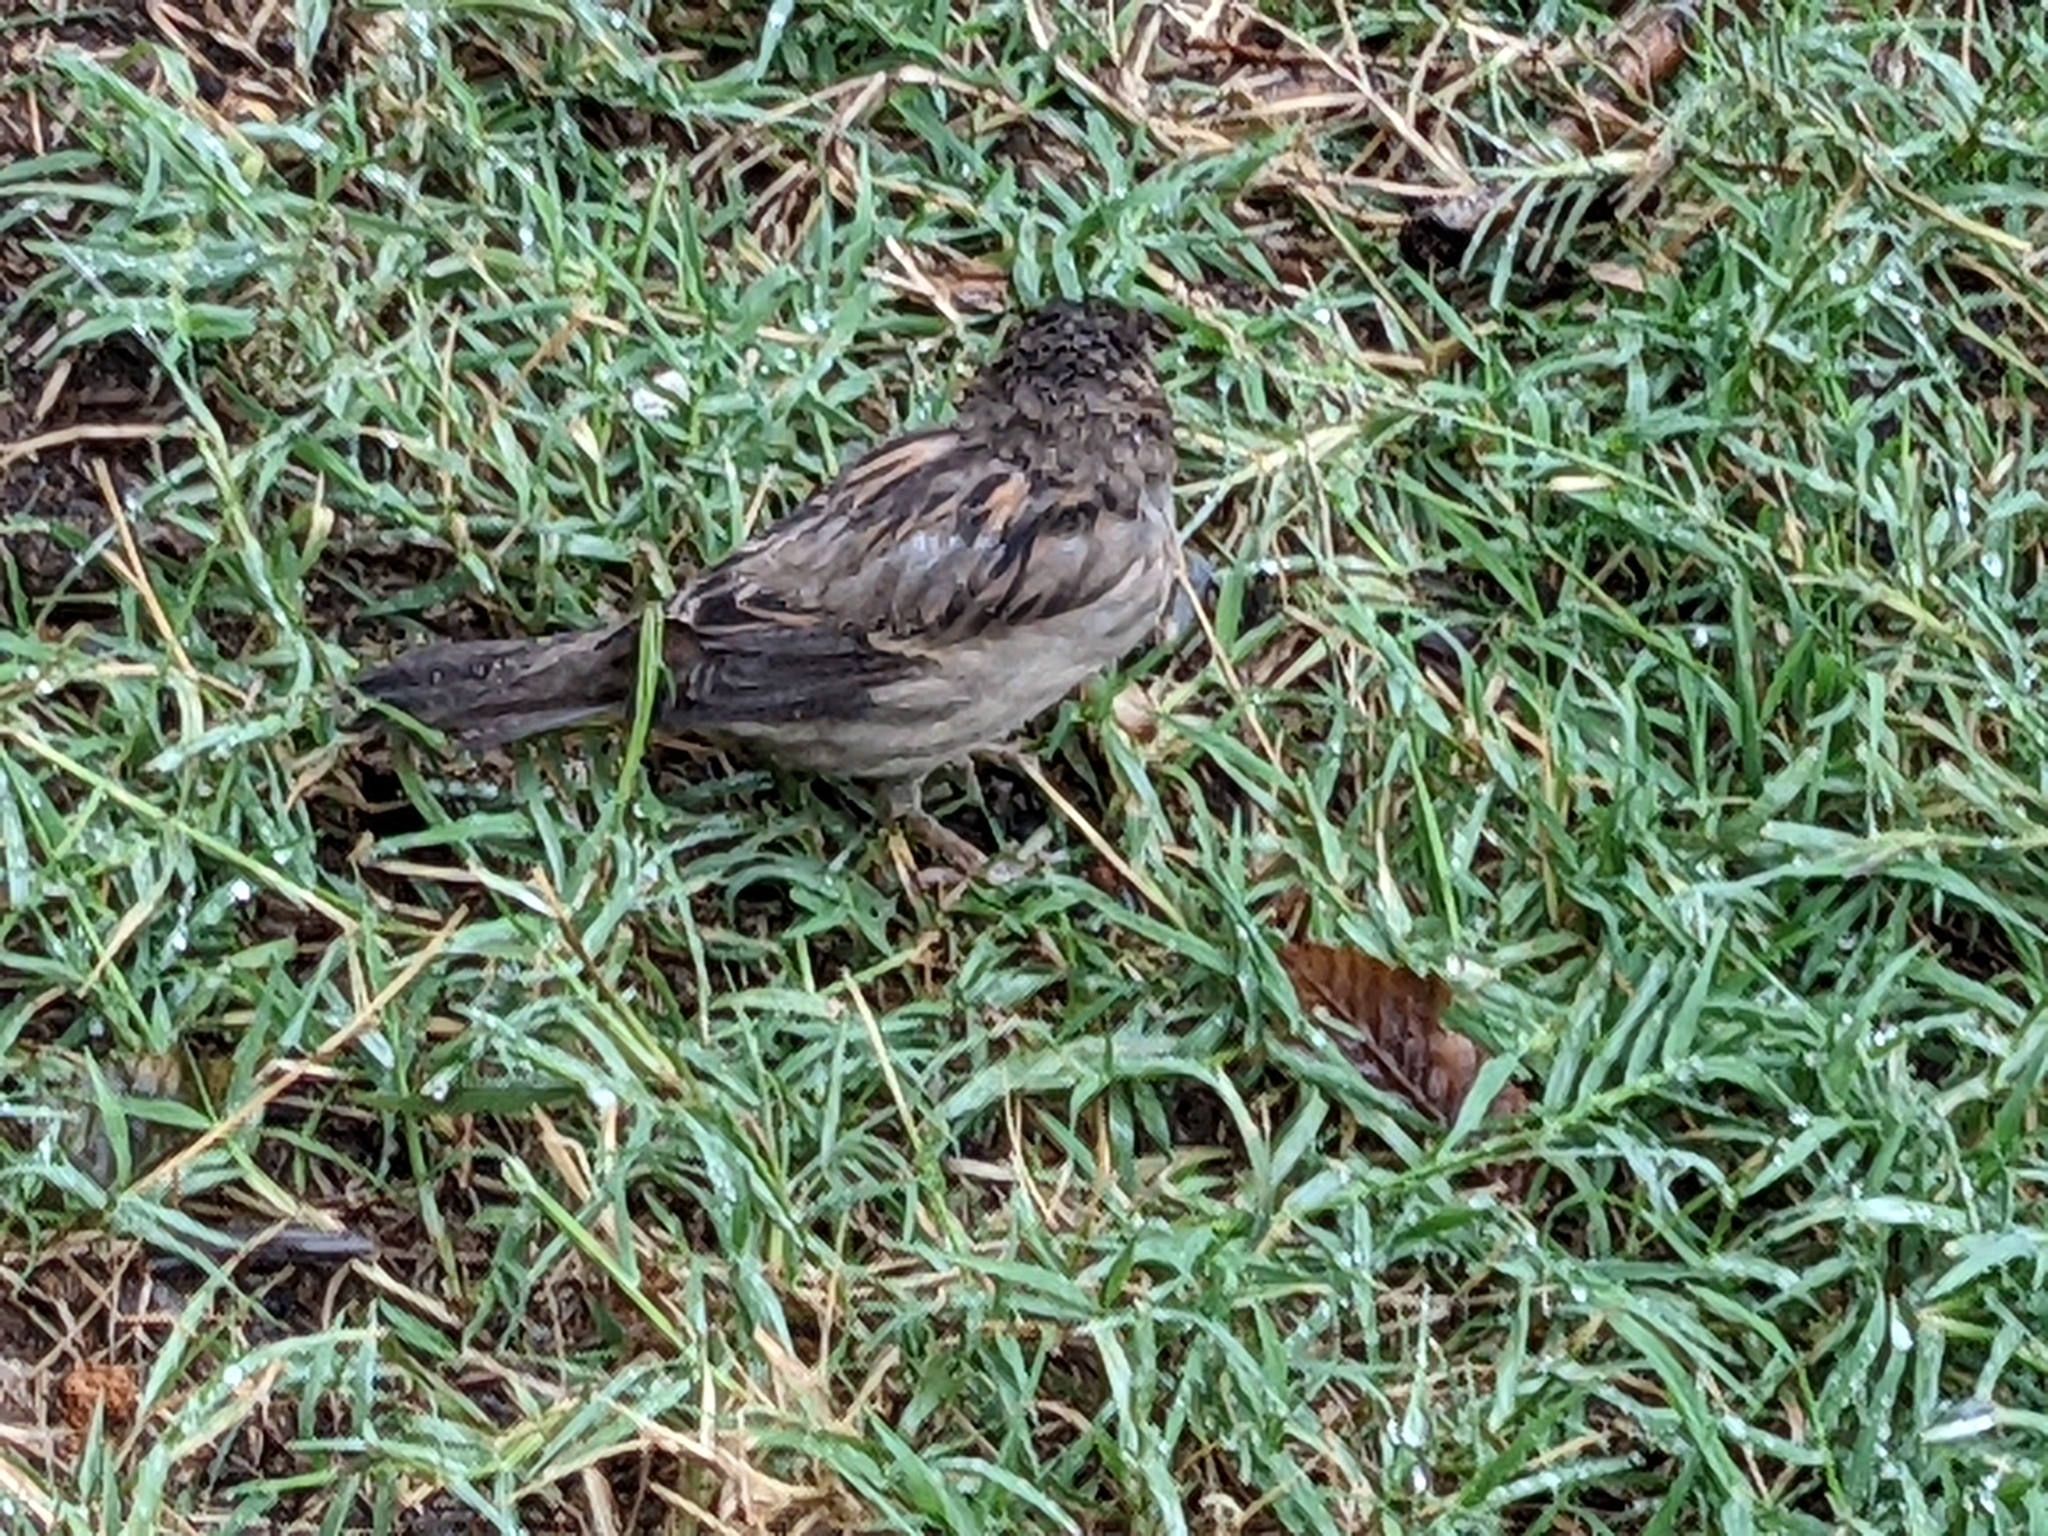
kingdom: Animalia
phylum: Chordata
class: Aves
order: Passeriformes
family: Passeridae
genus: Passer
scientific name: Passer domesticus
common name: House sparrow
